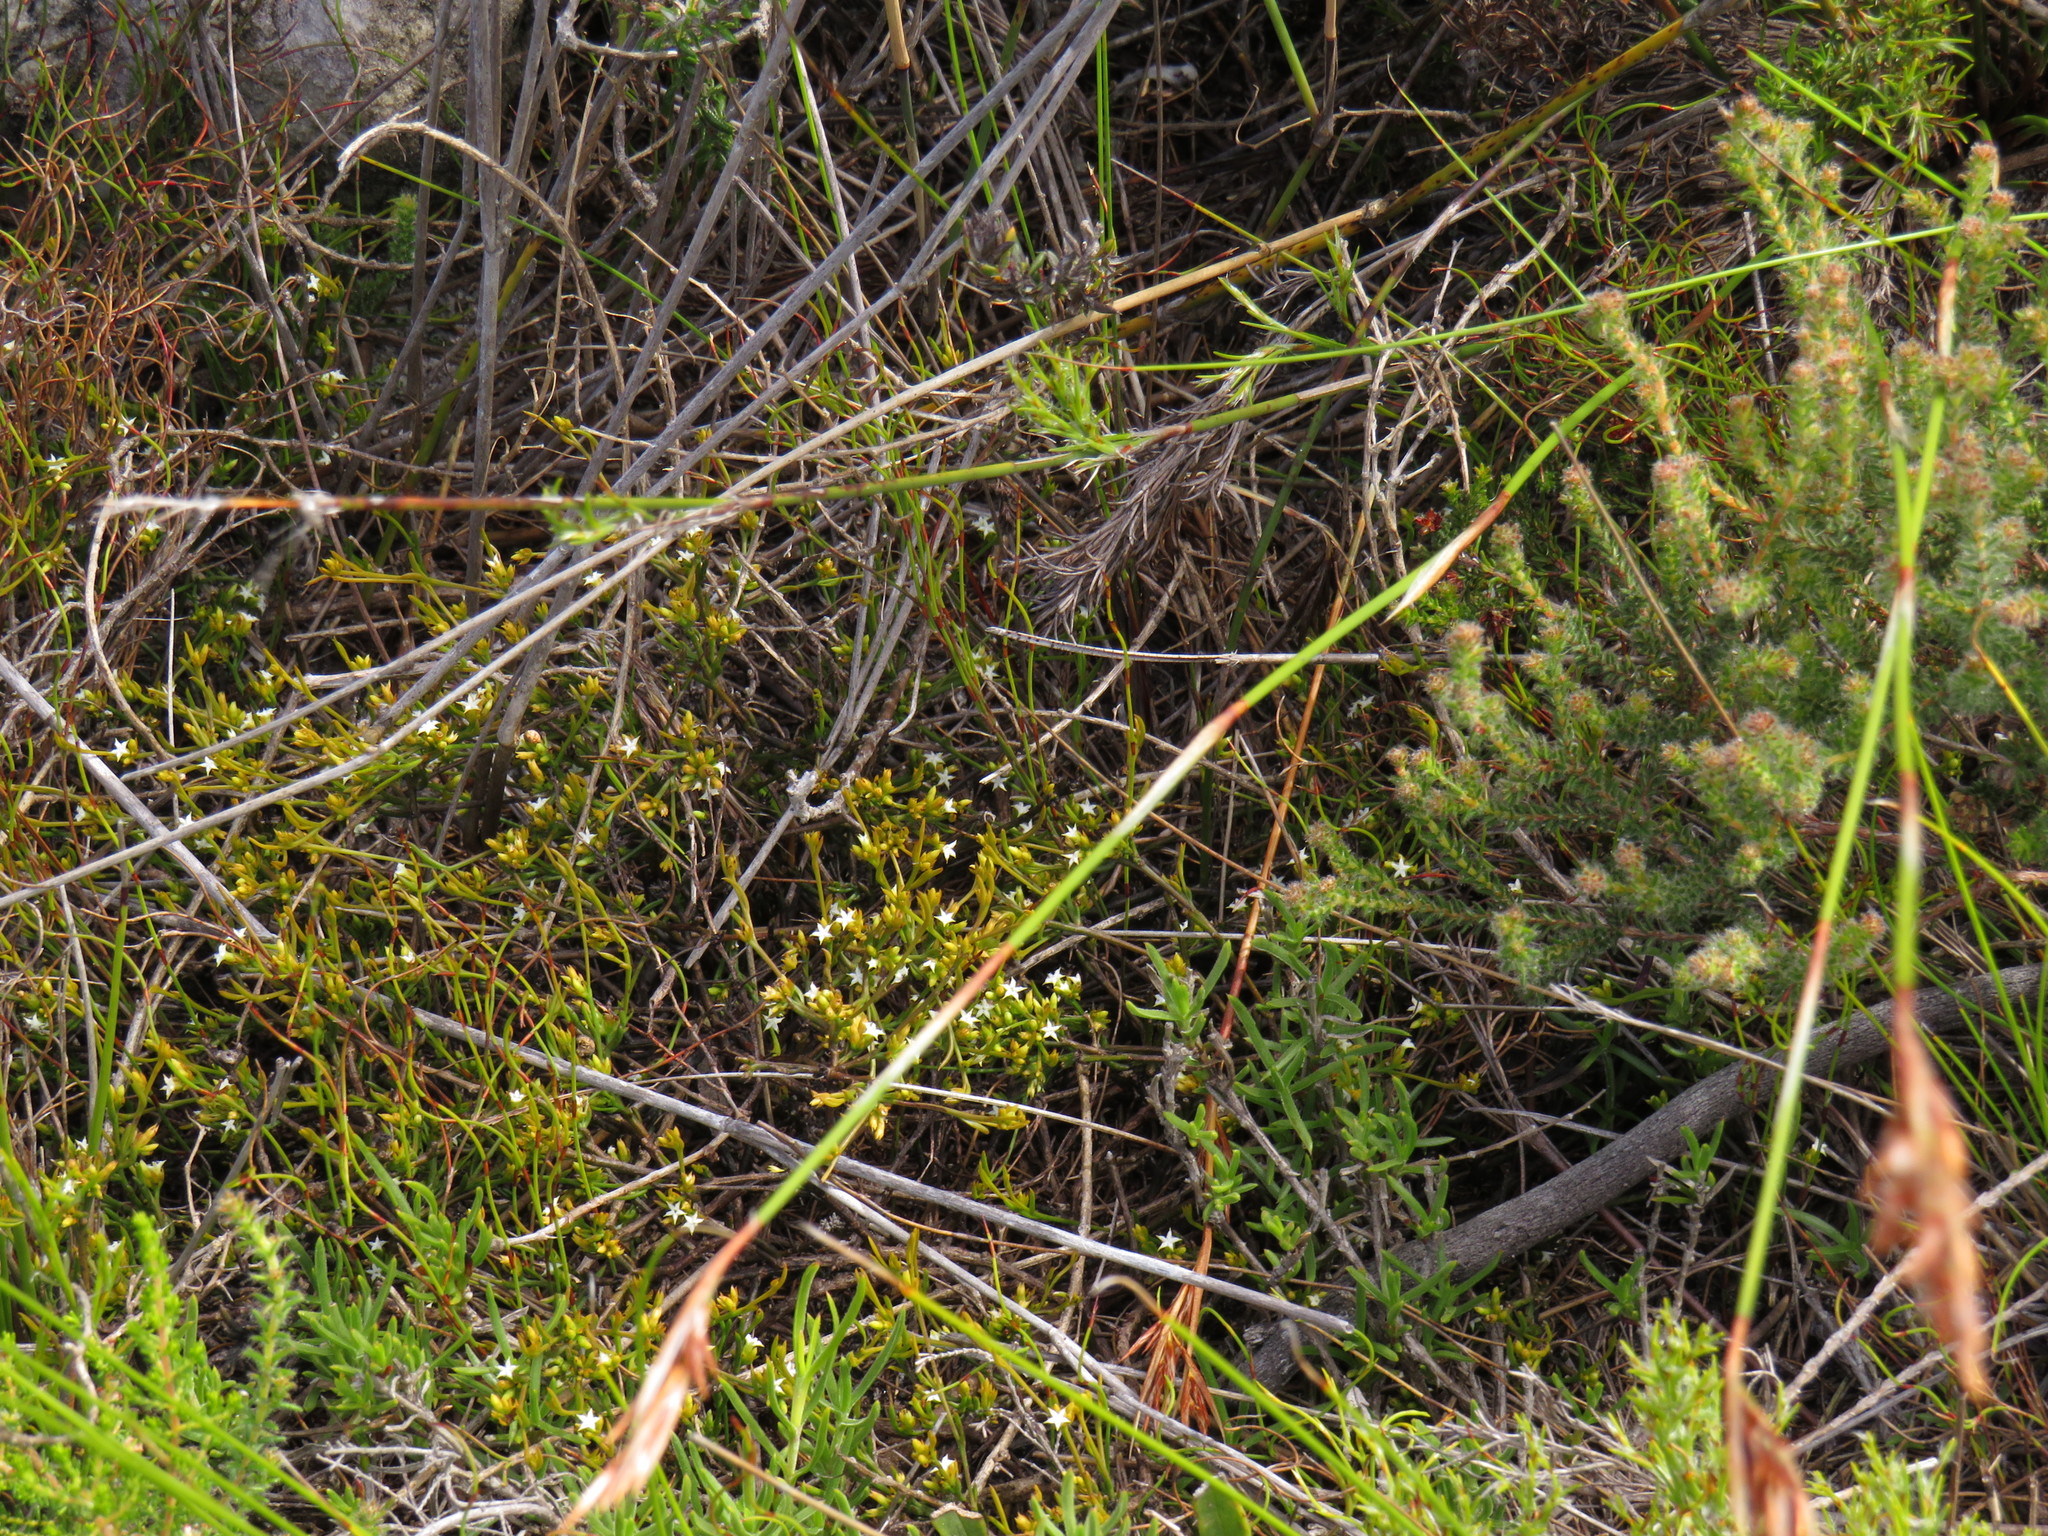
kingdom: Plantae
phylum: Tracheophyta
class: Magnoliopsida
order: Santalales
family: Thesiaceae
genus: Thesium
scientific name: Thesium acuminatum
